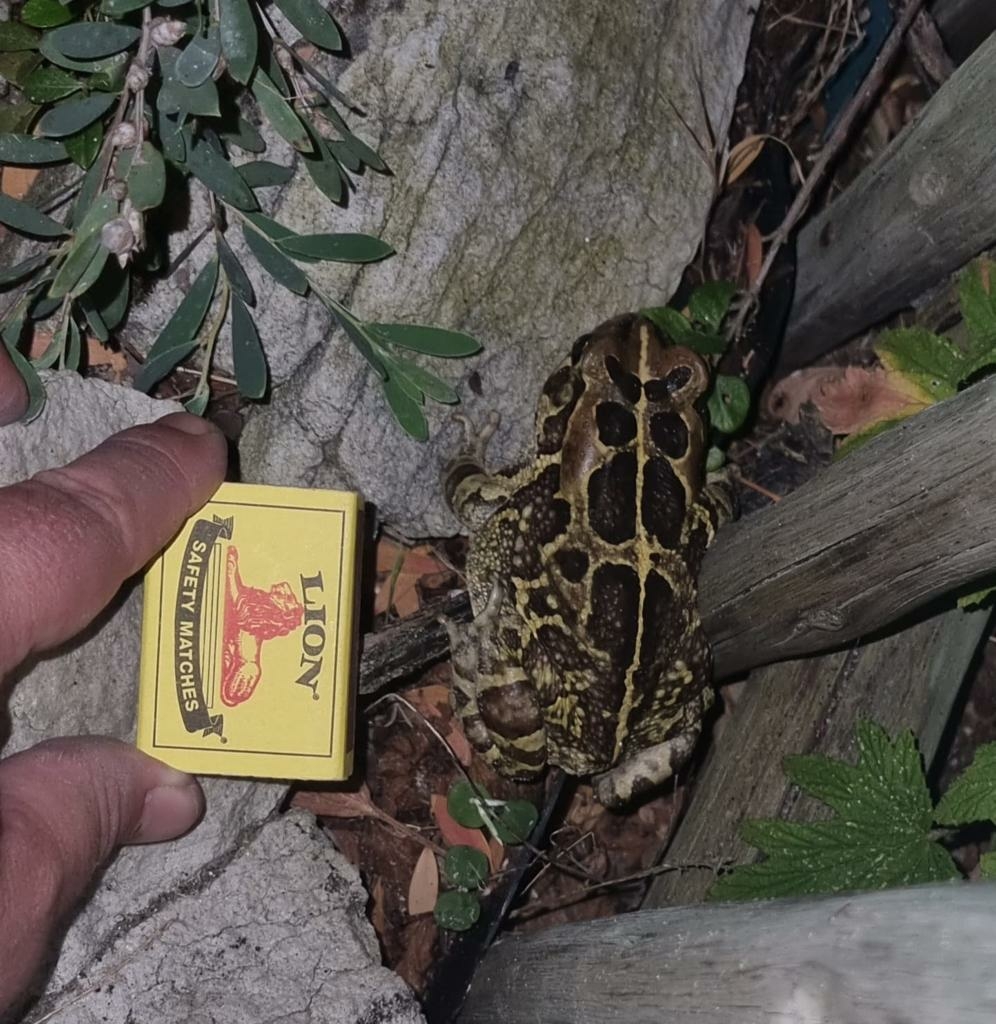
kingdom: Animalia
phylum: Chordata
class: Amphibia
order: Anura
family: Bufonidae
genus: Sclerophrys
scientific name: Sclerophrys pantherina
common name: Panther toad
